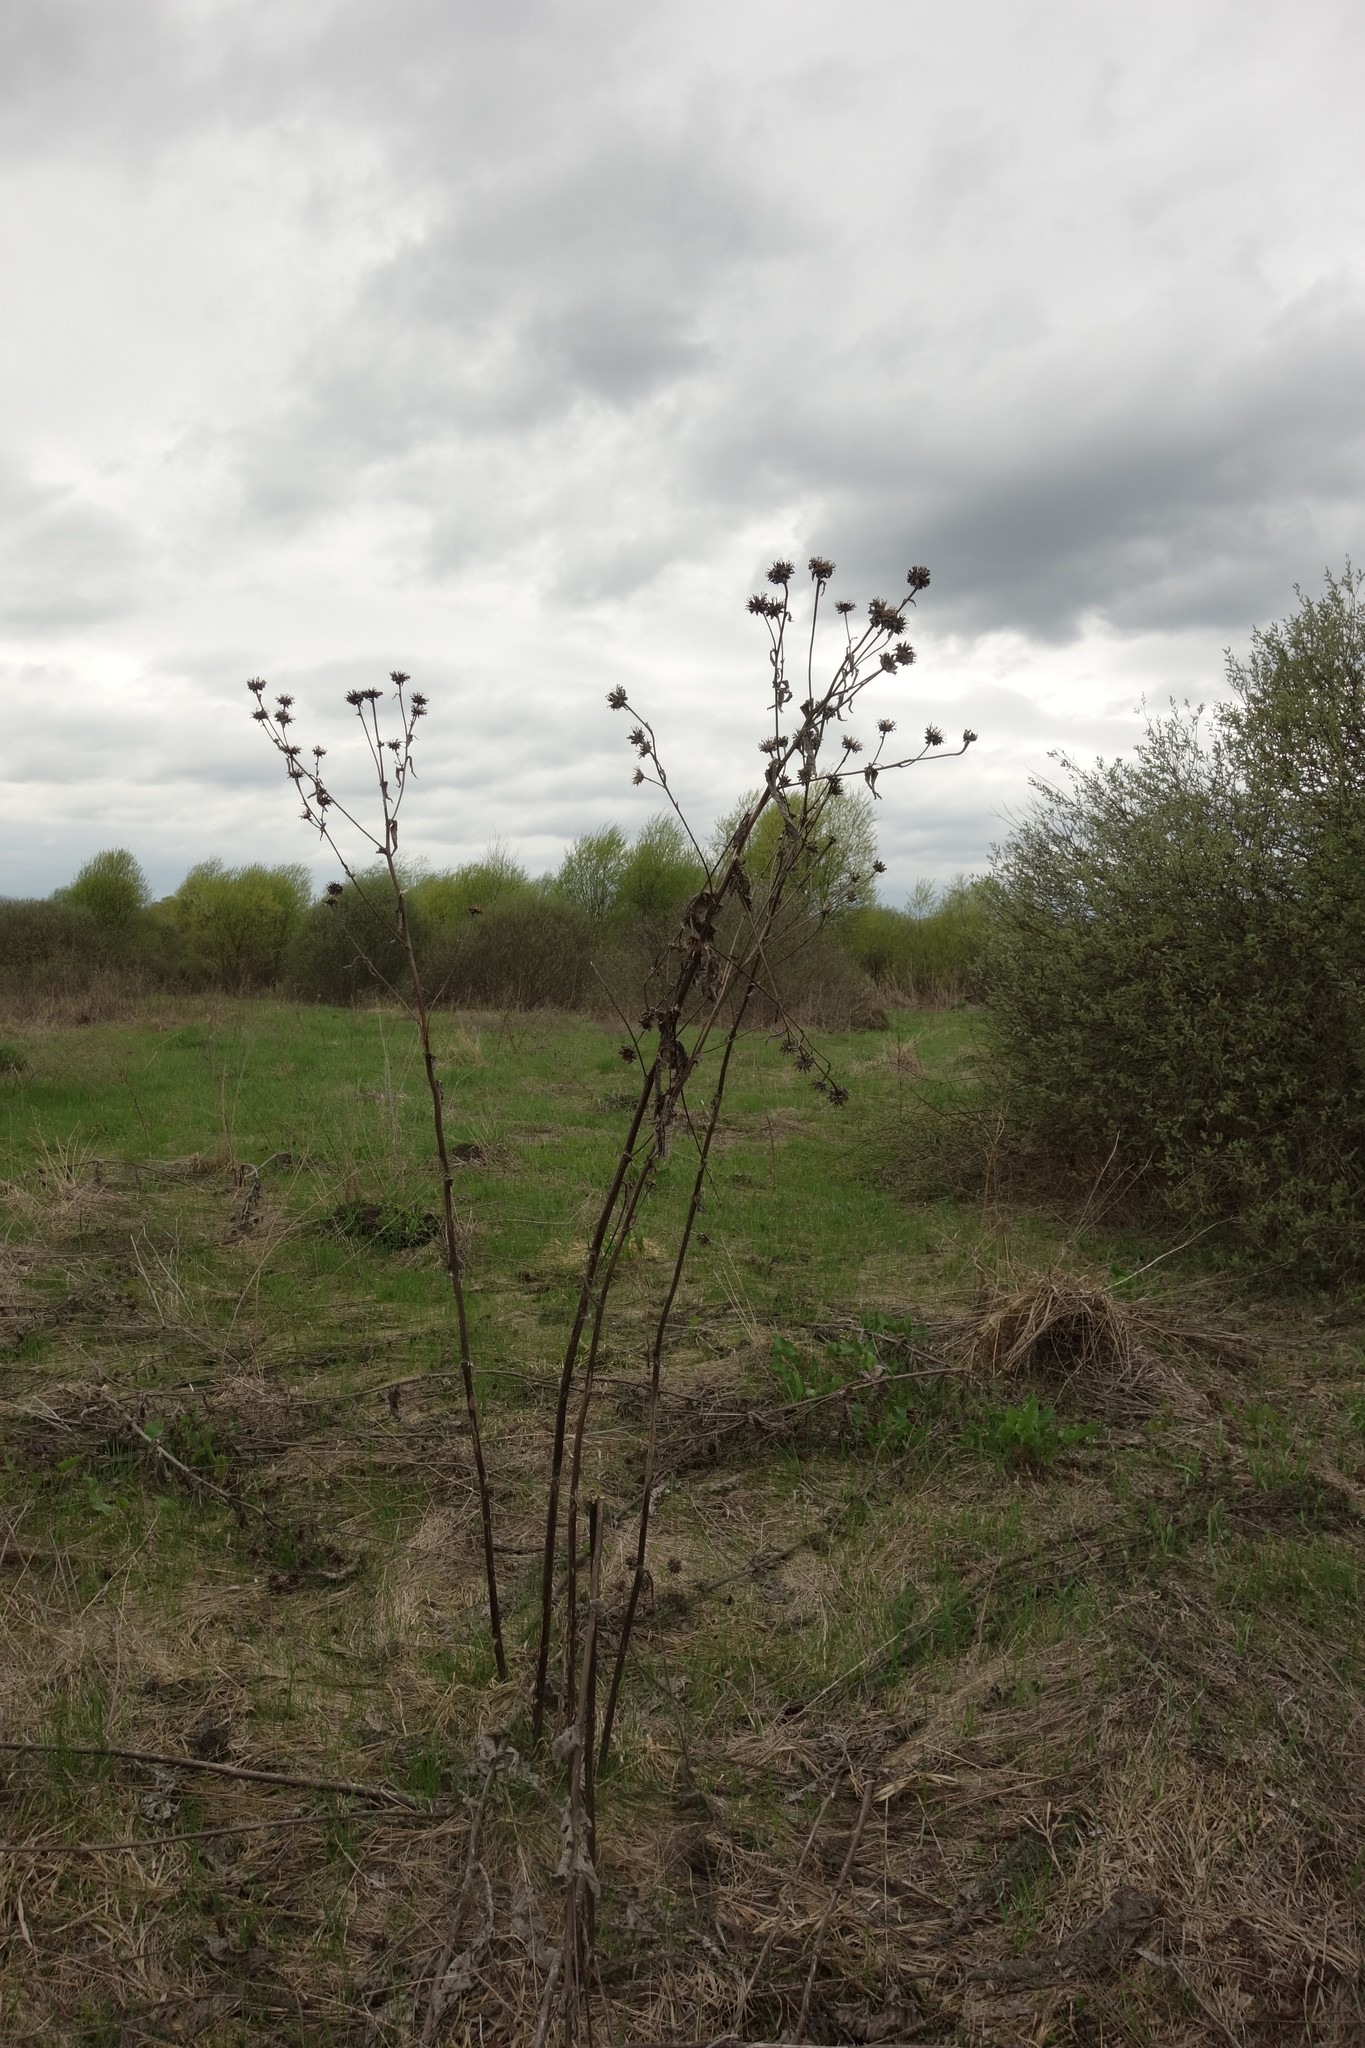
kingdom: Plantae
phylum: Tracheophyta
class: Magnoliopsida
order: Asterales
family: Asteraceae
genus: Inula
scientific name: Inula helenium
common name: Elecampane
